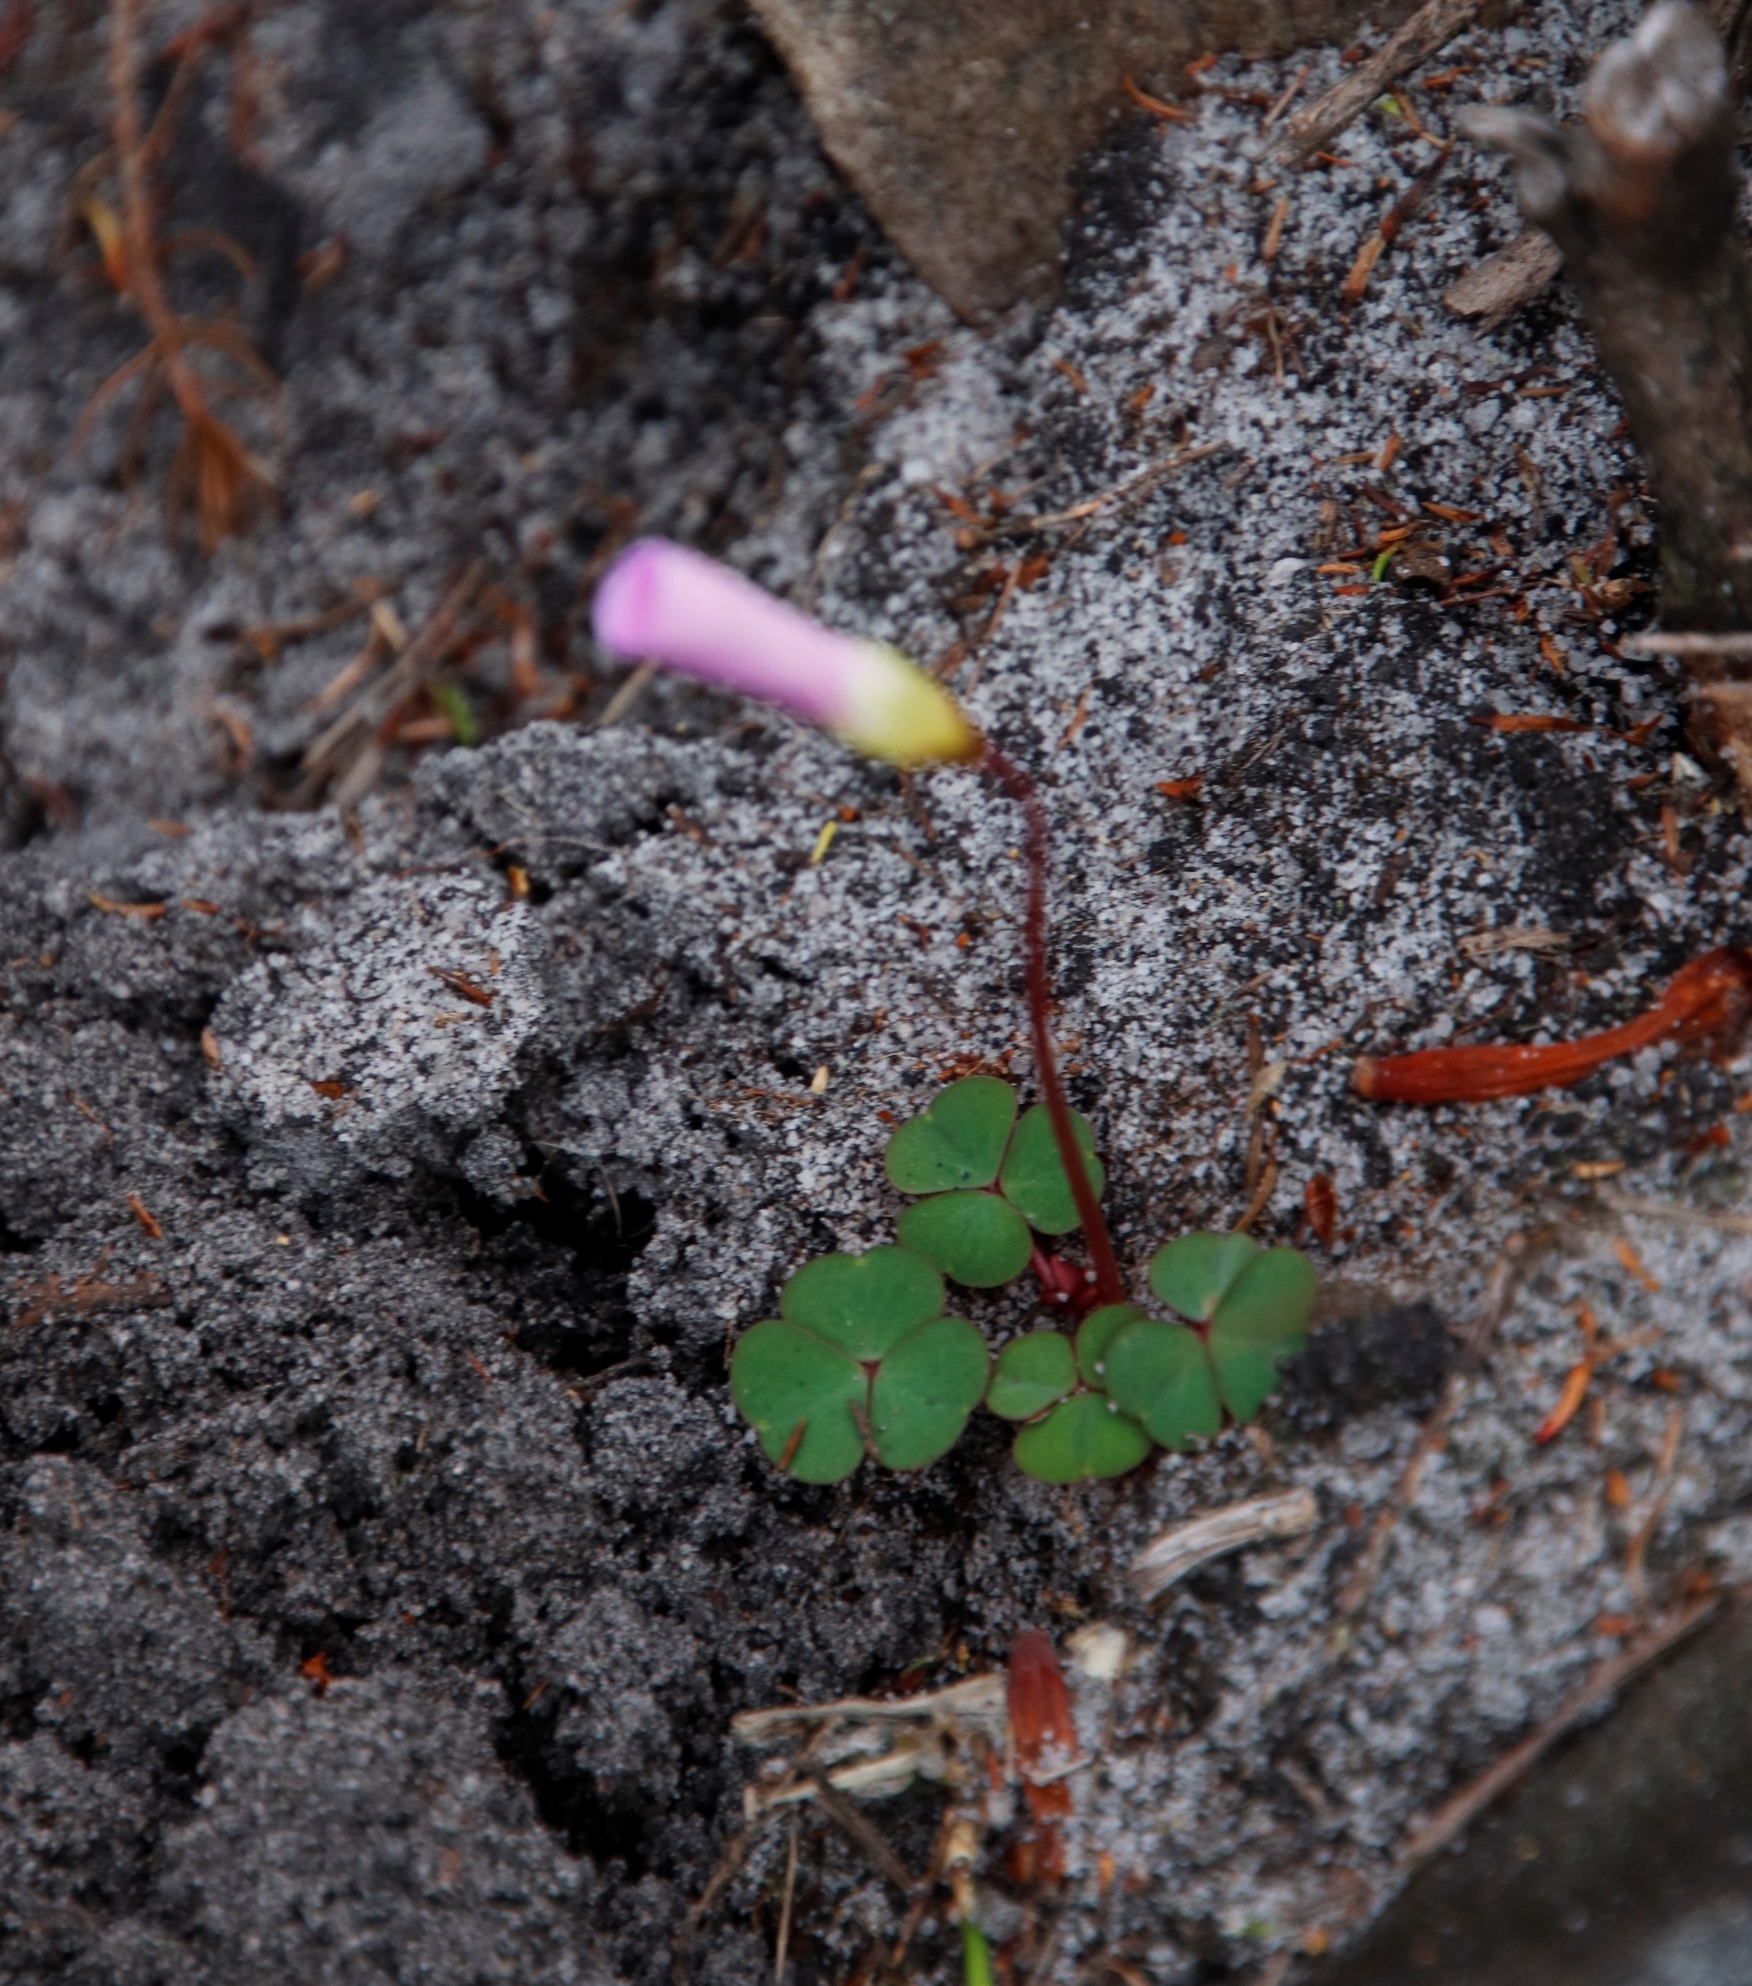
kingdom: Plantae
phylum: Tracheophyta
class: Magnoliopsida
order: Oxalidales
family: Oxalidaceae
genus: Oxalis
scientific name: Oxalis commutata
